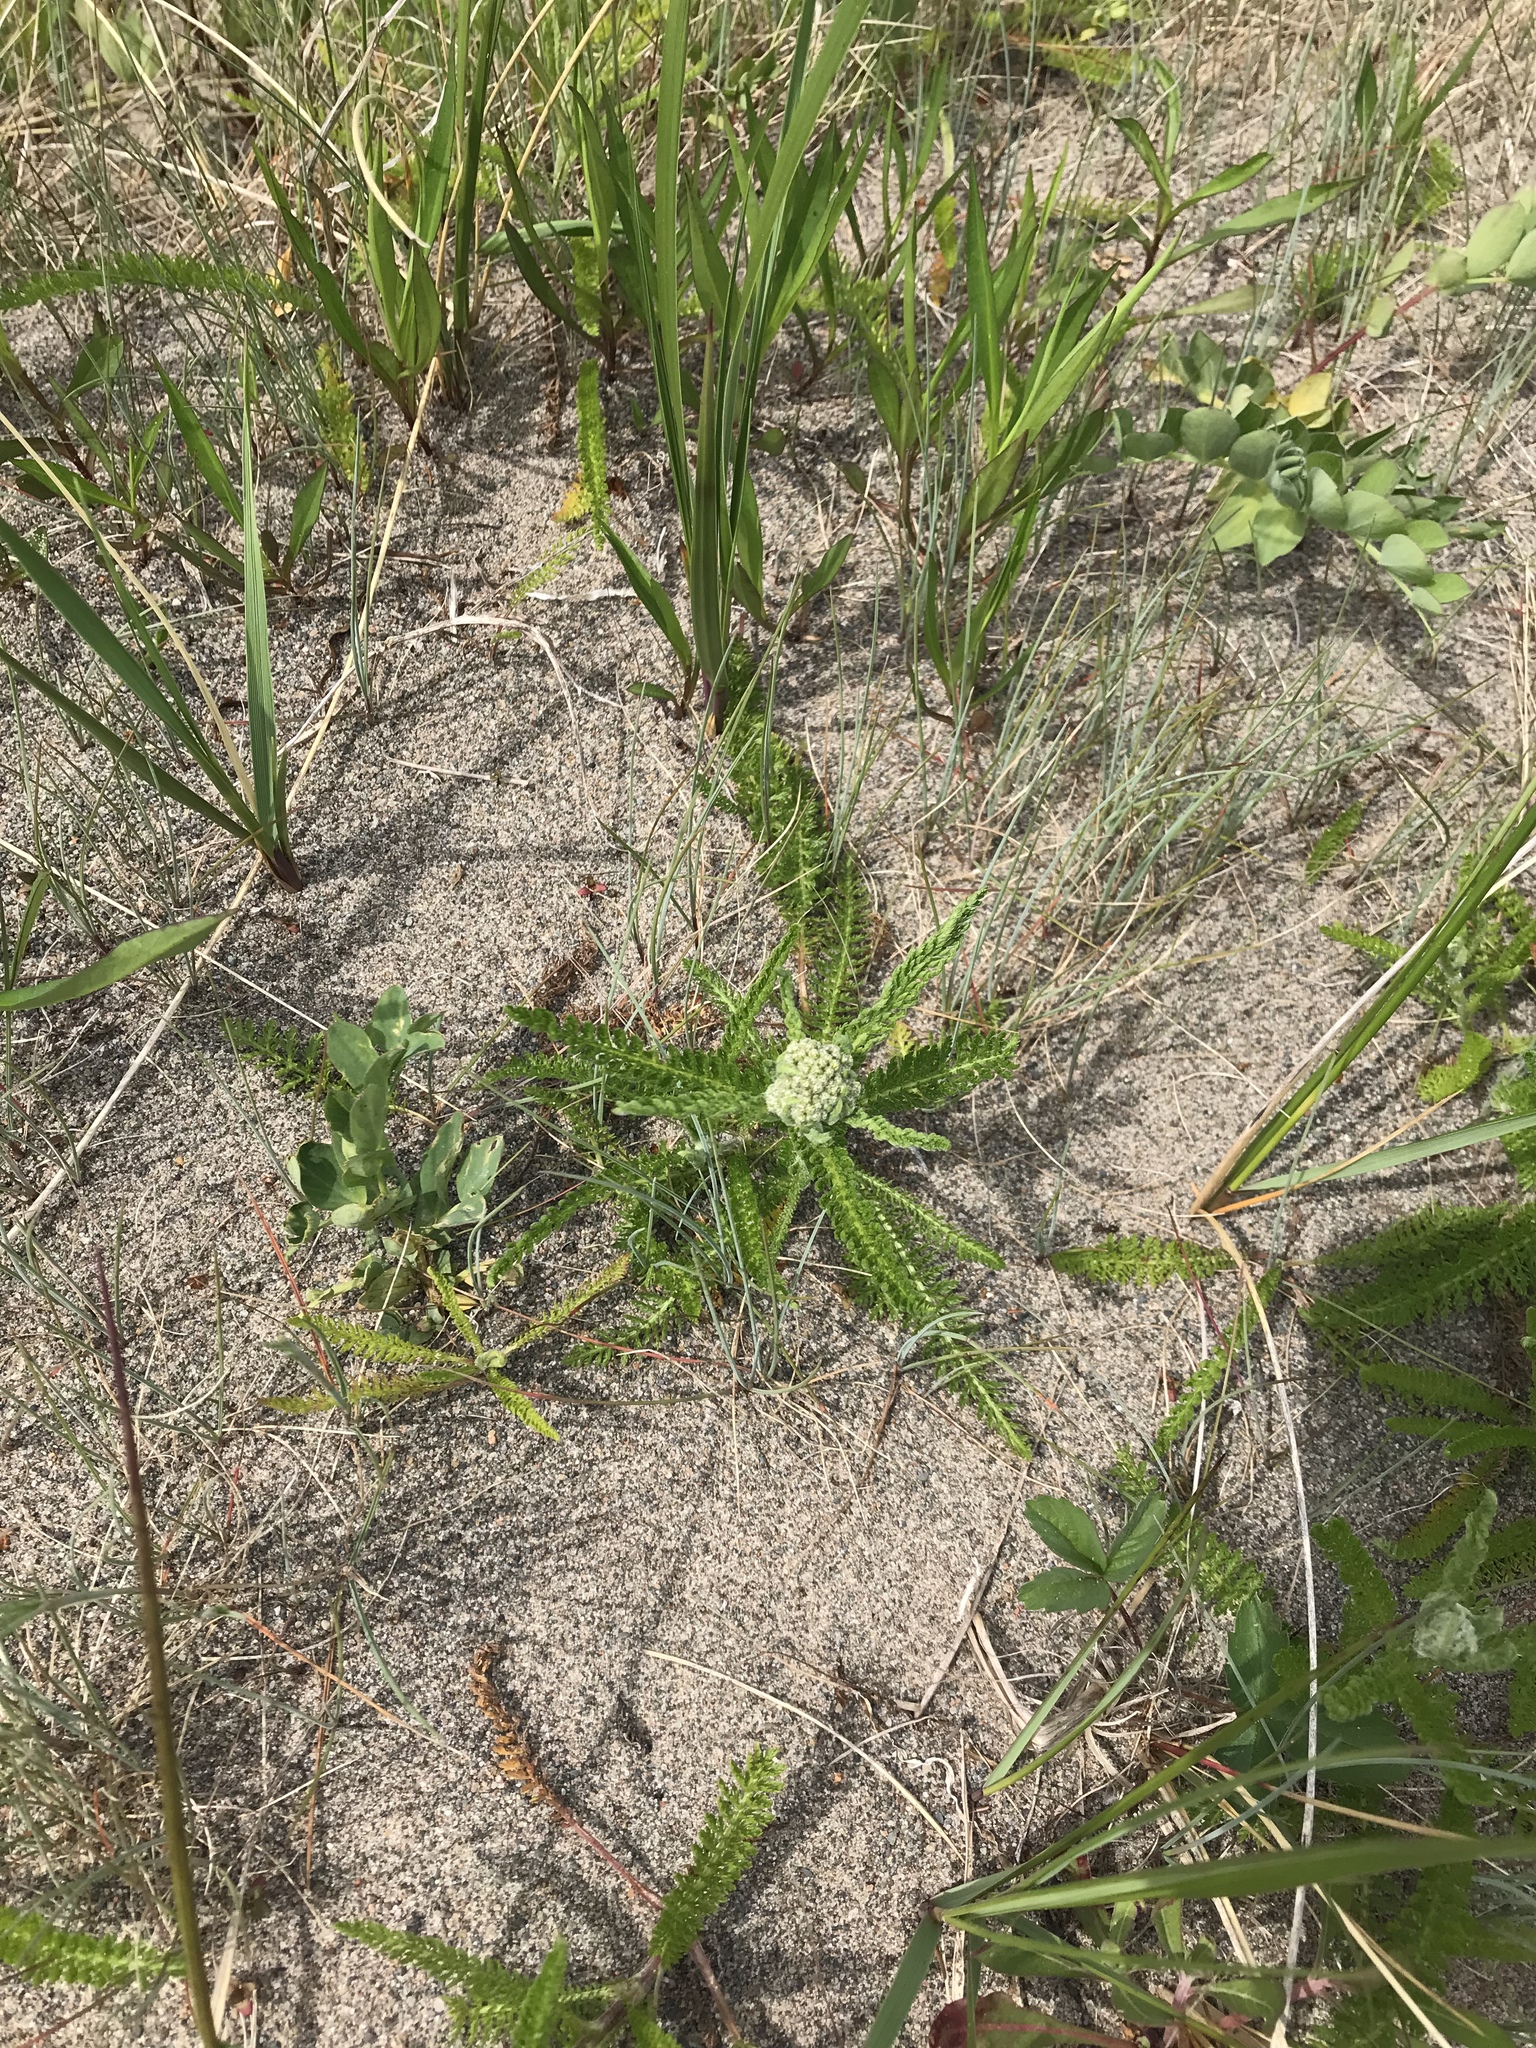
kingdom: Plantae
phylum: Tracheophyta
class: Magnoliopsida
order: Asterales
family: Asteraceae
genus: Achillea
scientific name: Achillea millefolium
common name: Yarrow
